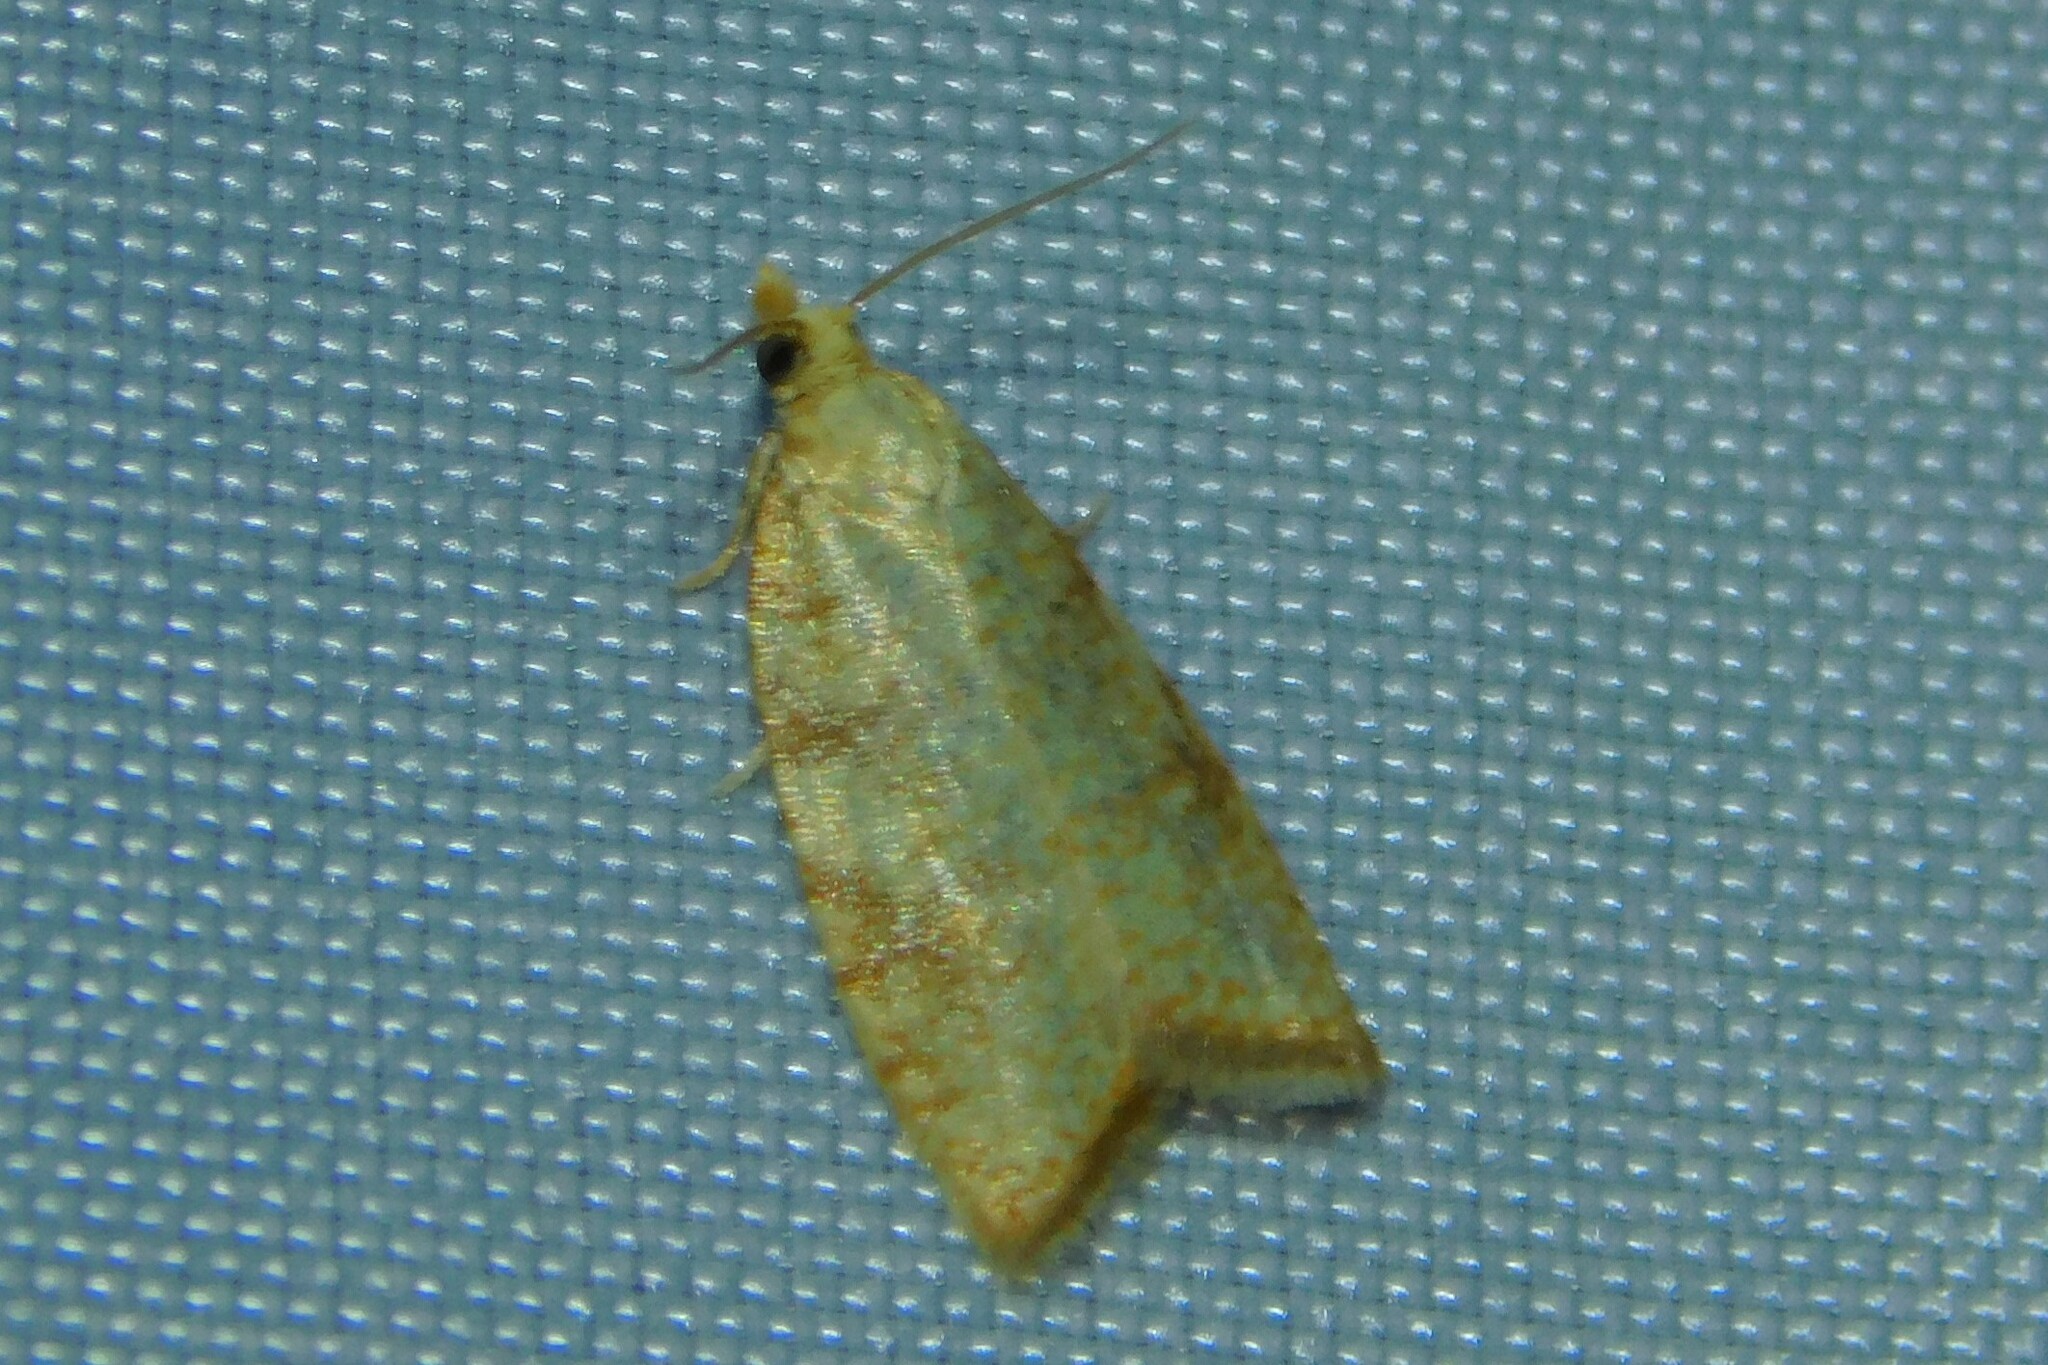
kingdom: Animalia
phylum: Arthropoda
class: Insecta
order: Lepidoptera
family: Tortricidae
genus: Aleimma
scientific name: Aleimma loeflingiana
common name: Yellow oak button
